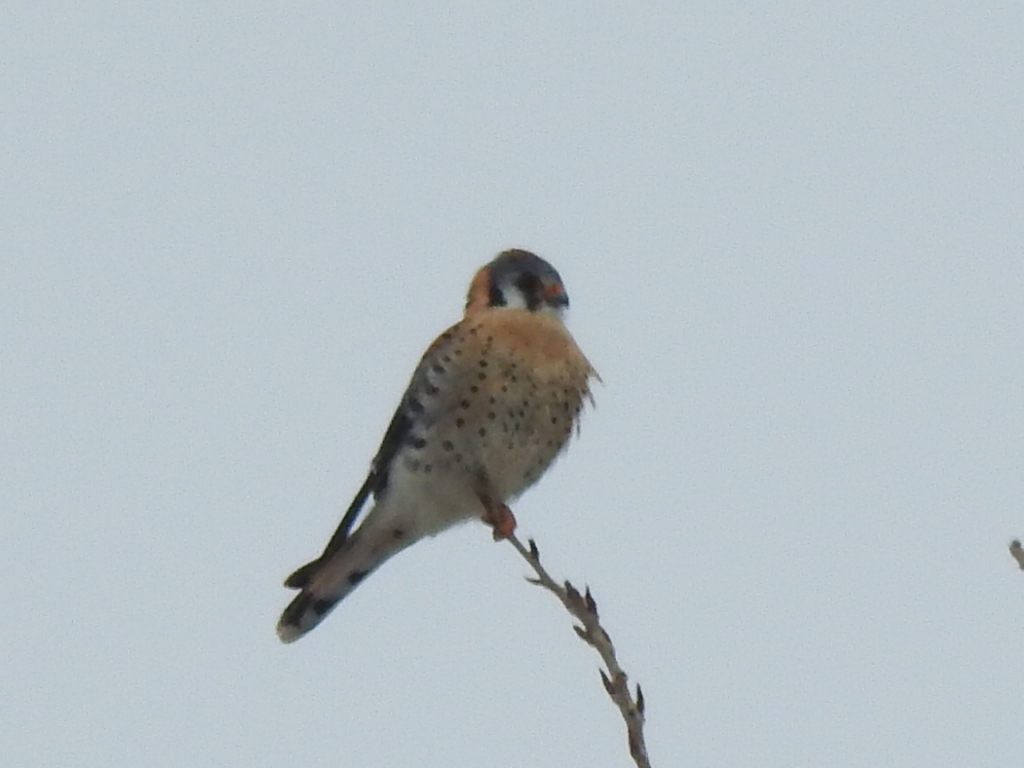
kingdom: Animalia
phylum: Chordata
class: Aves
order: Falconiformes
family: Falconidae
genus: Falco
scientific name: Falco sparverius
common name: American kestrel
